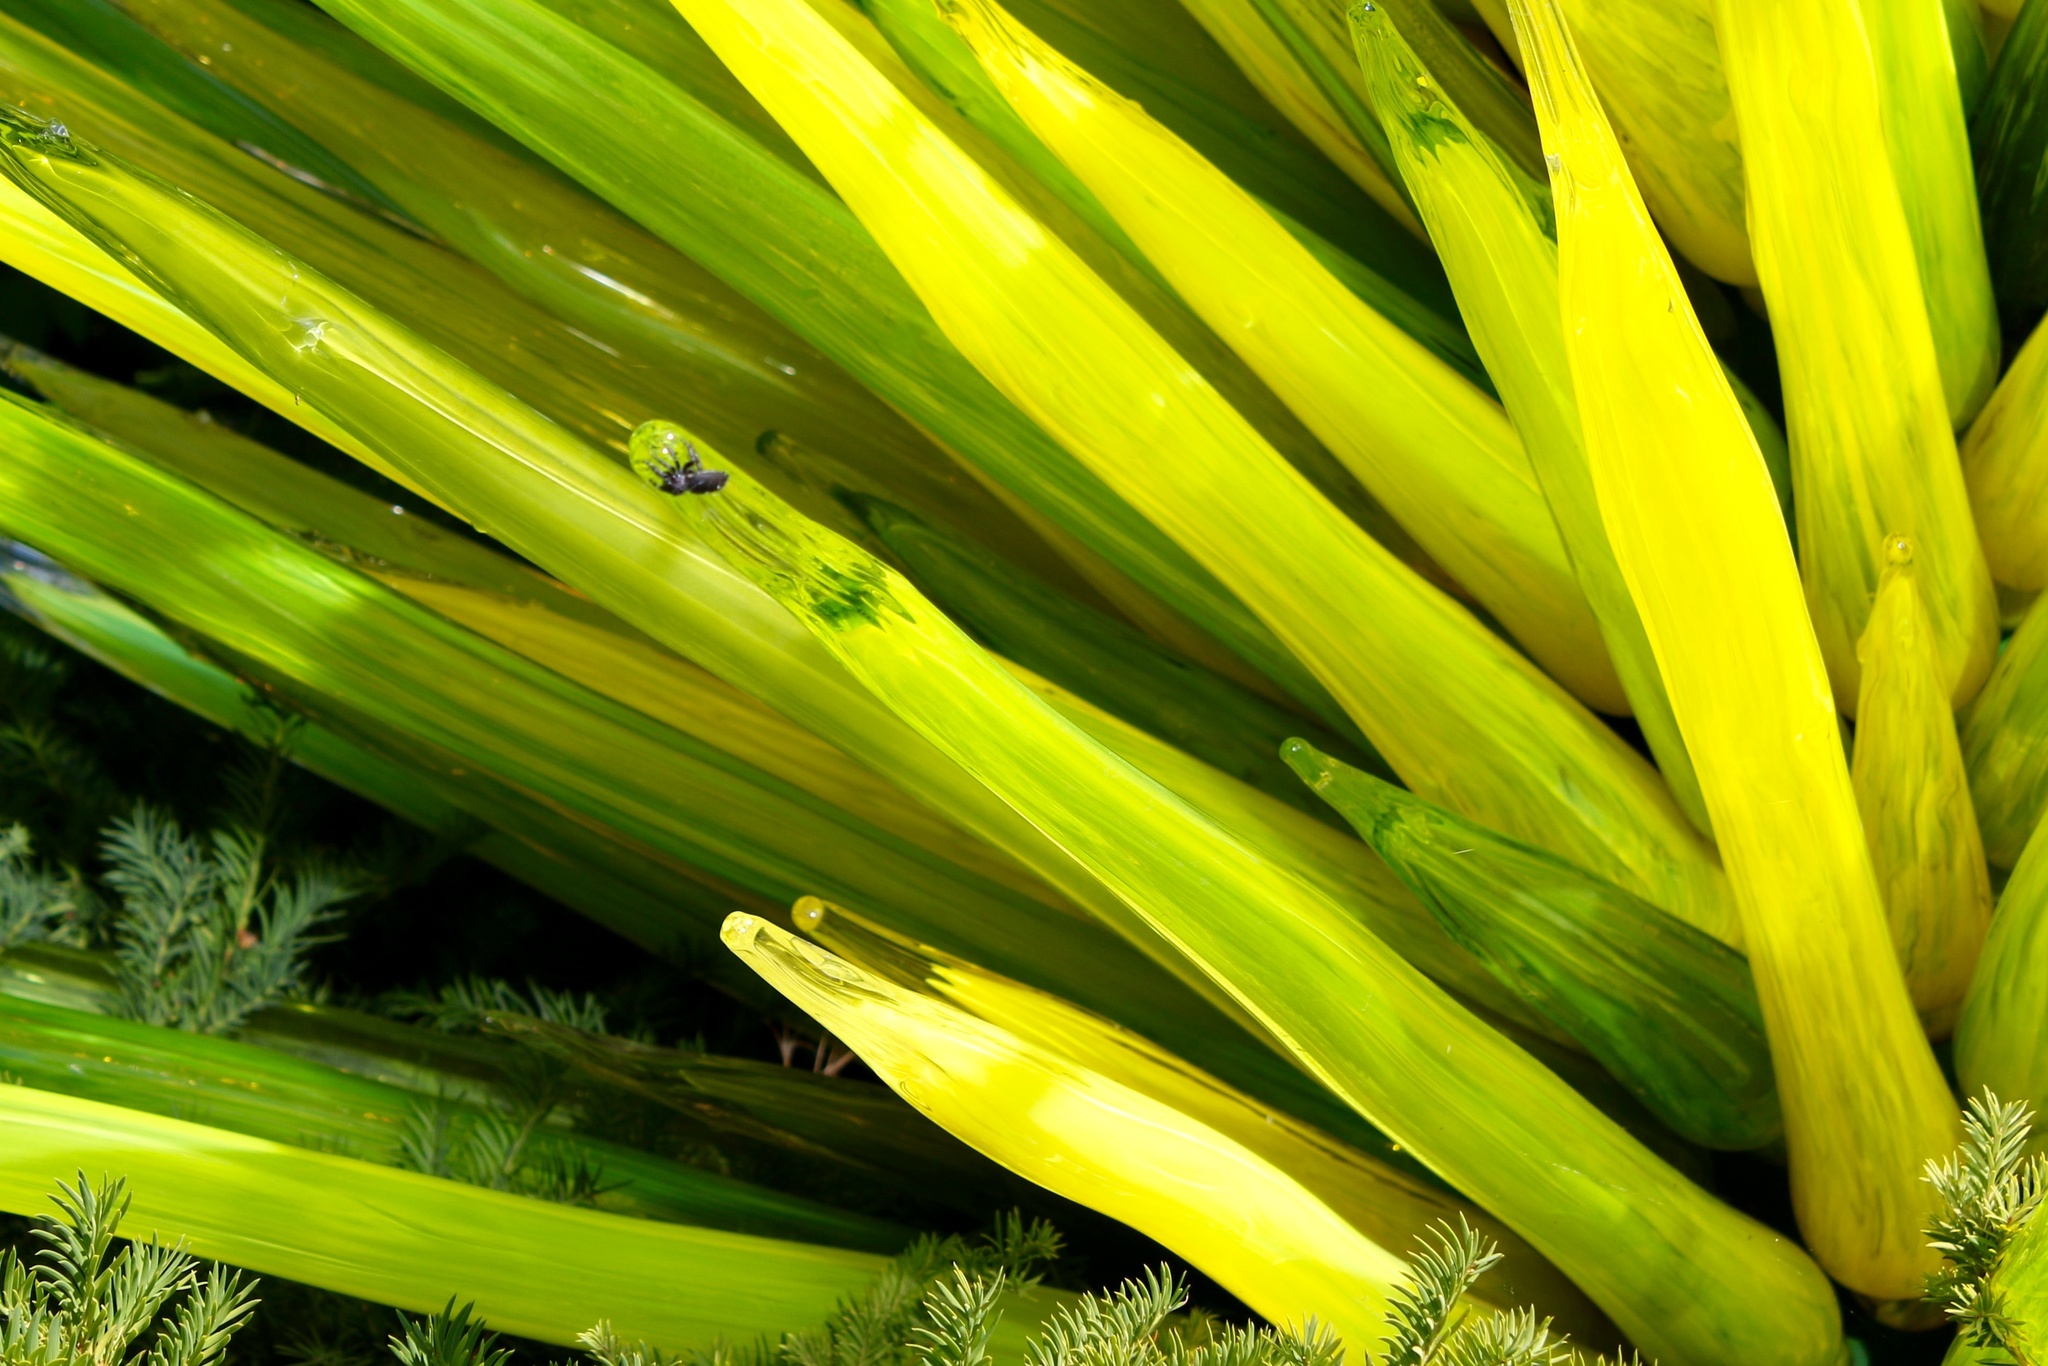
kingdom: Animalia
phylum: Arthropoda
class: Arachnida
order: Araneae
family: Salticidae
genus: Phidippus
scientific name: Phidippus audax
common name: Bold jumper
